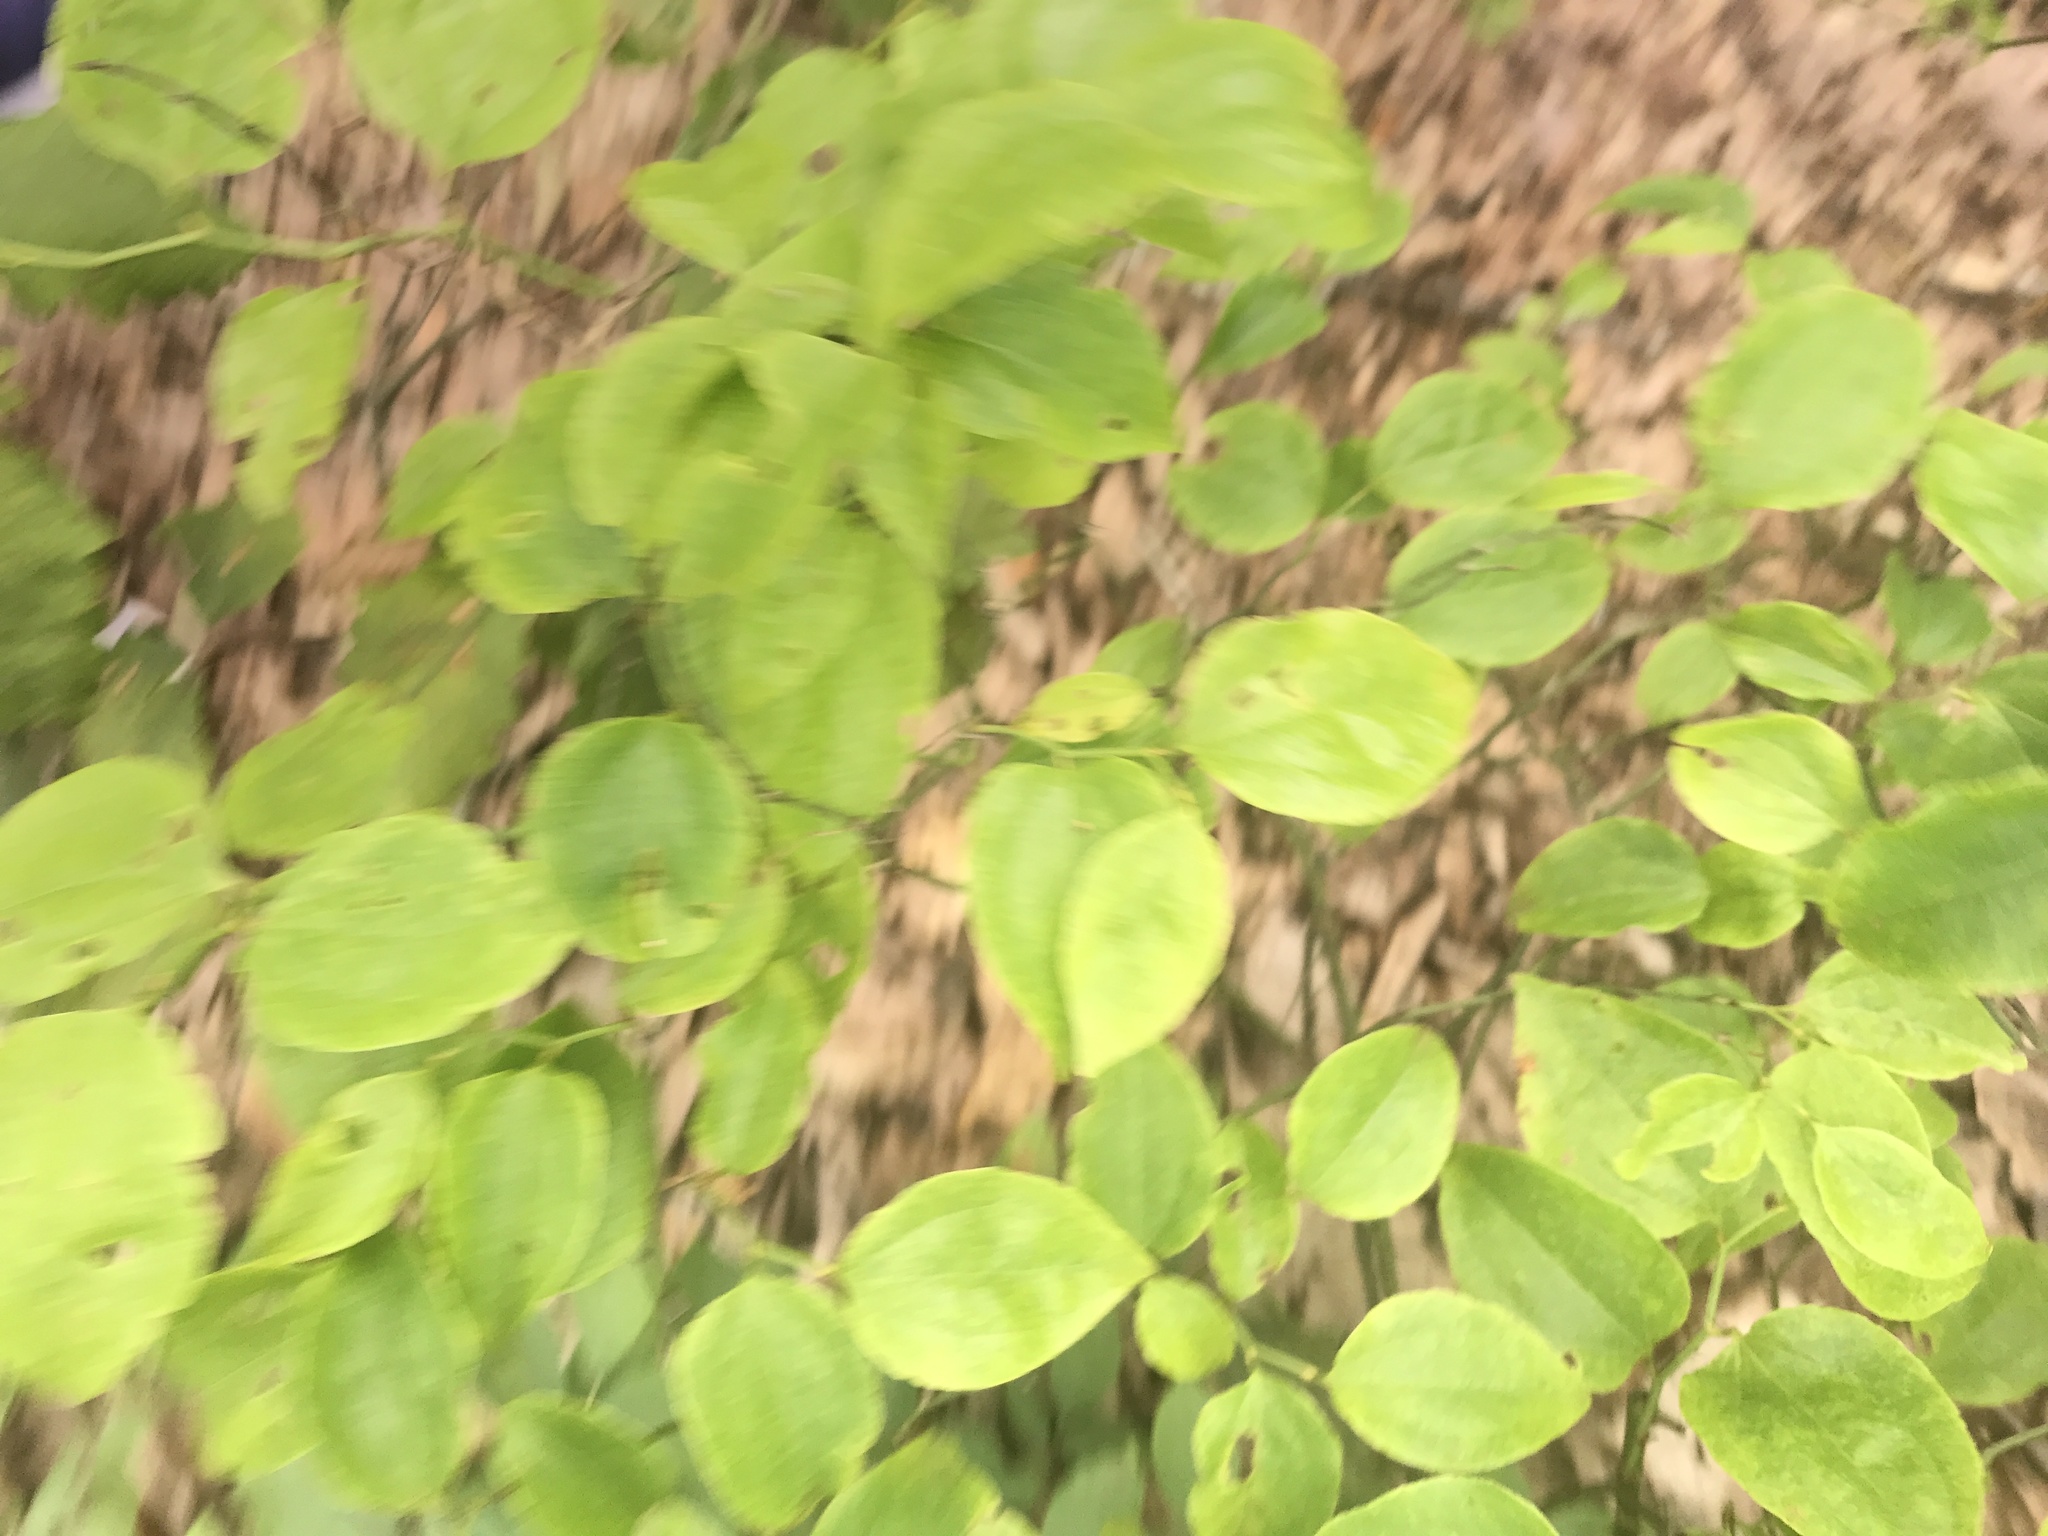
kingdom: Plantae
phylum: Tracheophyta
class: Liliopsida
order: Liliales
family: Smilacaceae
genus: Smilax
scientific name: Smilax rotundifolia
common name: Bullbriar
